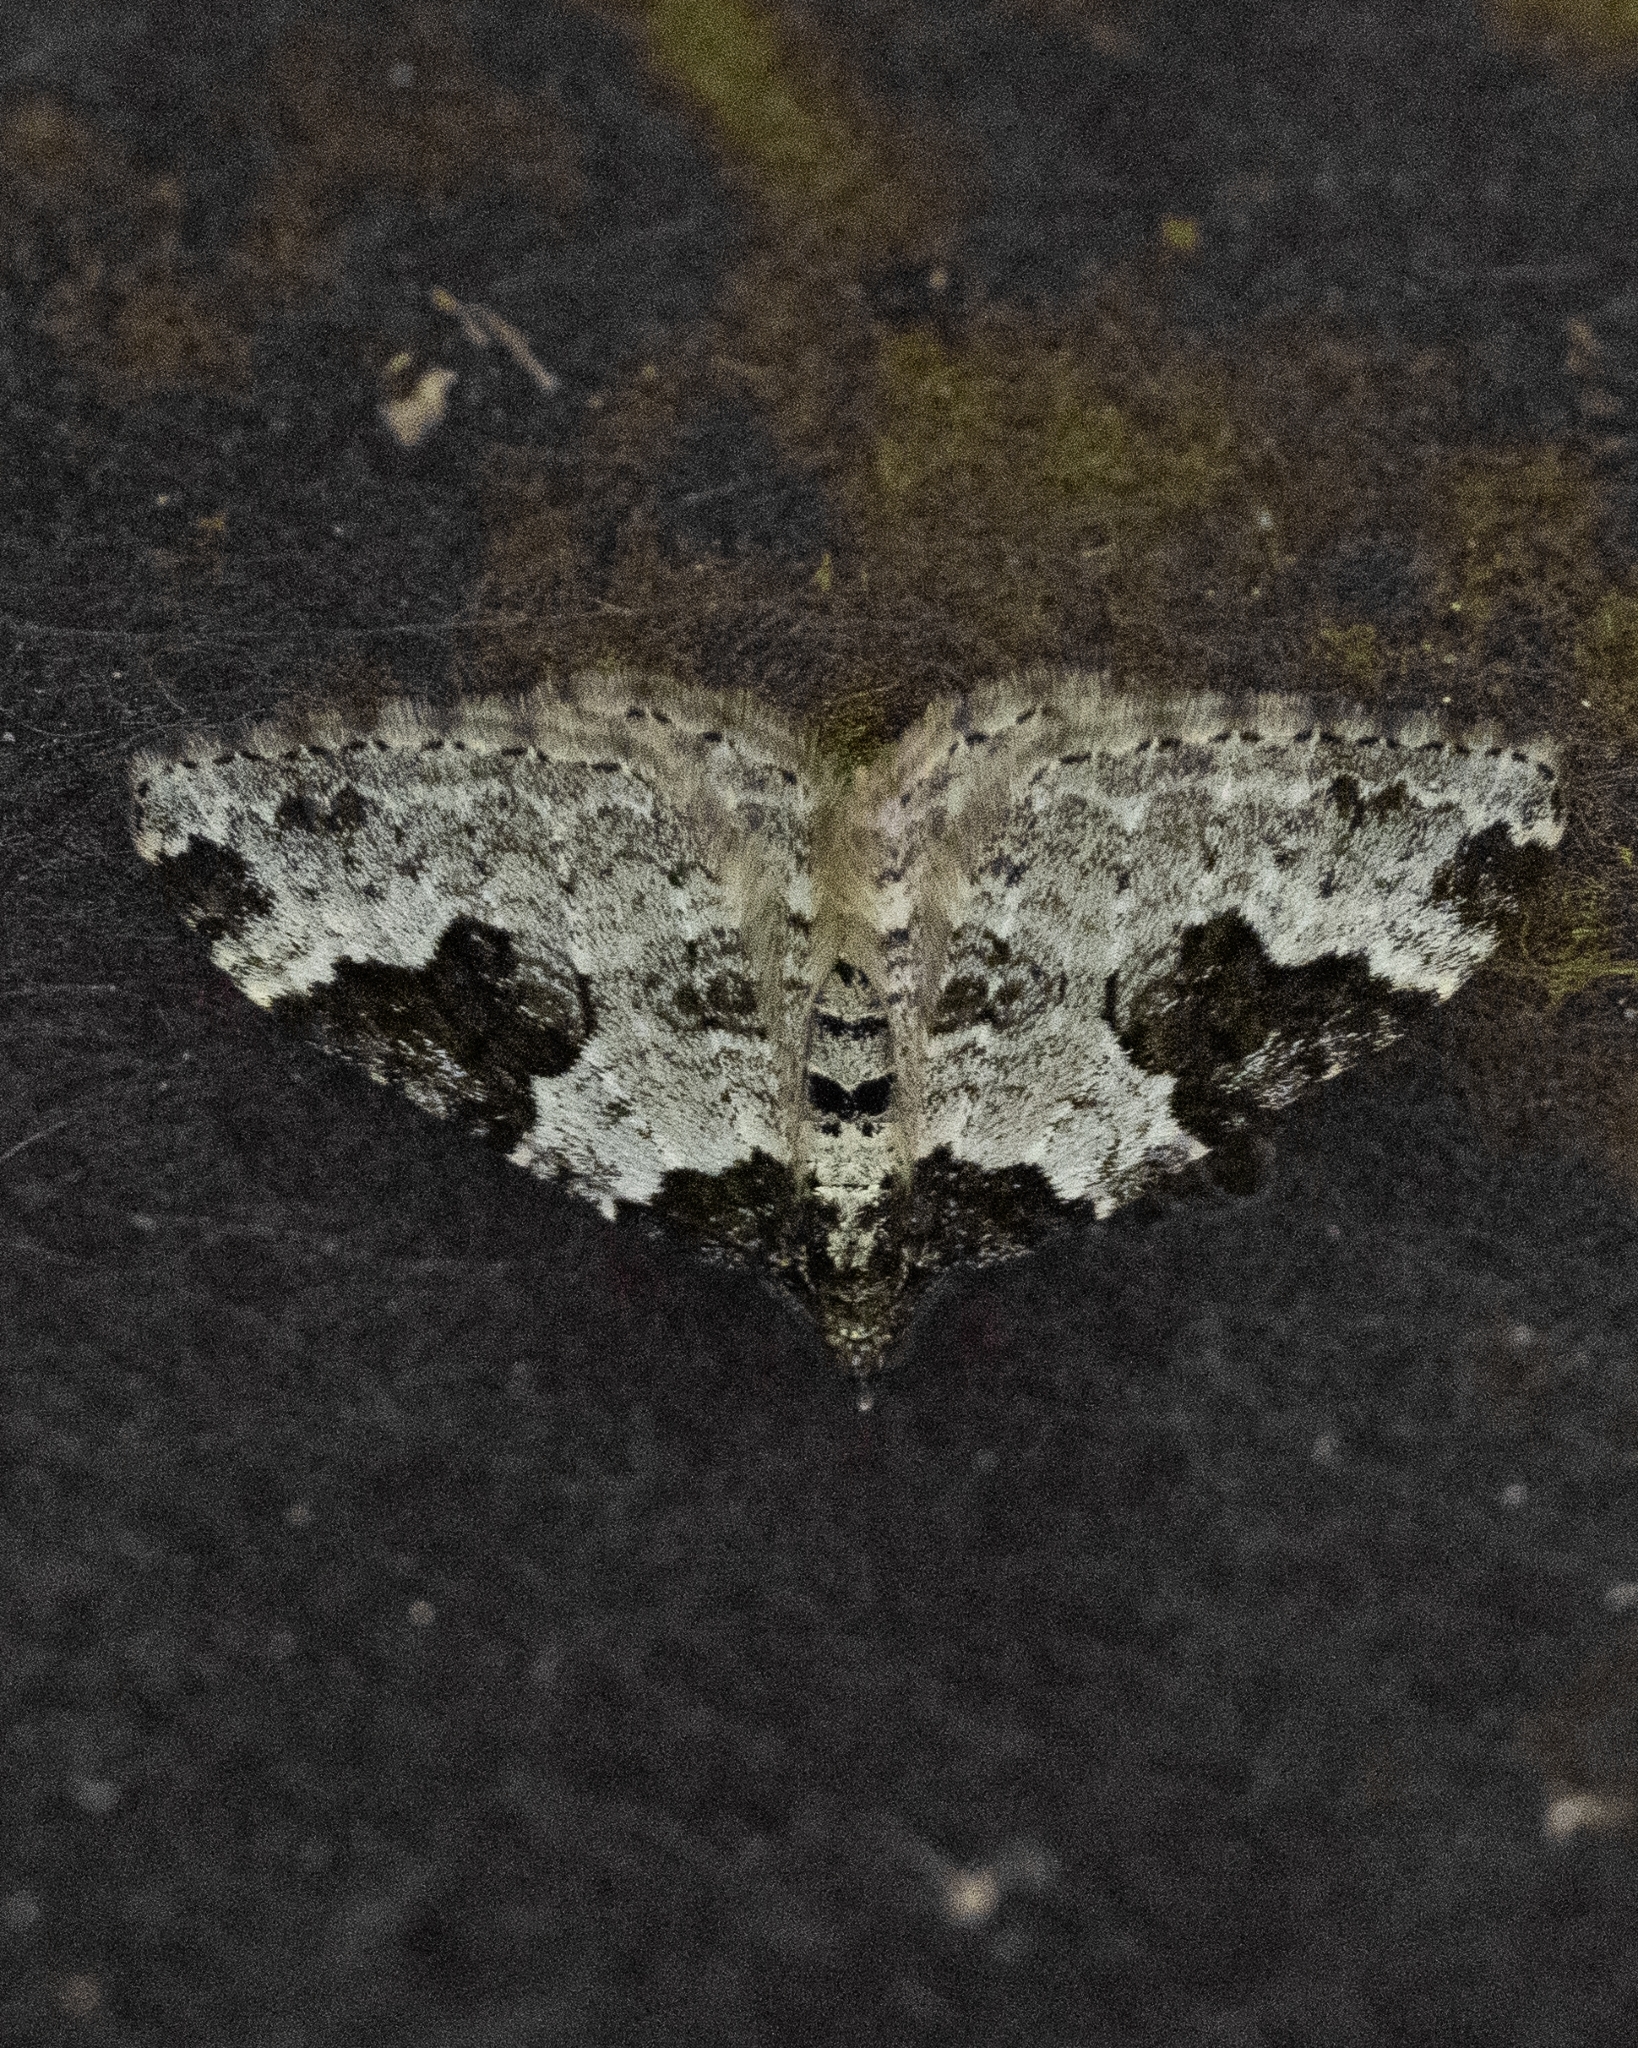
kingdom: Animalia
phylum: Arthropoda
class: Insecta
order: Lepidoptera
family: Geometridae
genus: Xanthorhoe
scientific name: Xanthorhoe fluctuata
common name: Garden carpet
